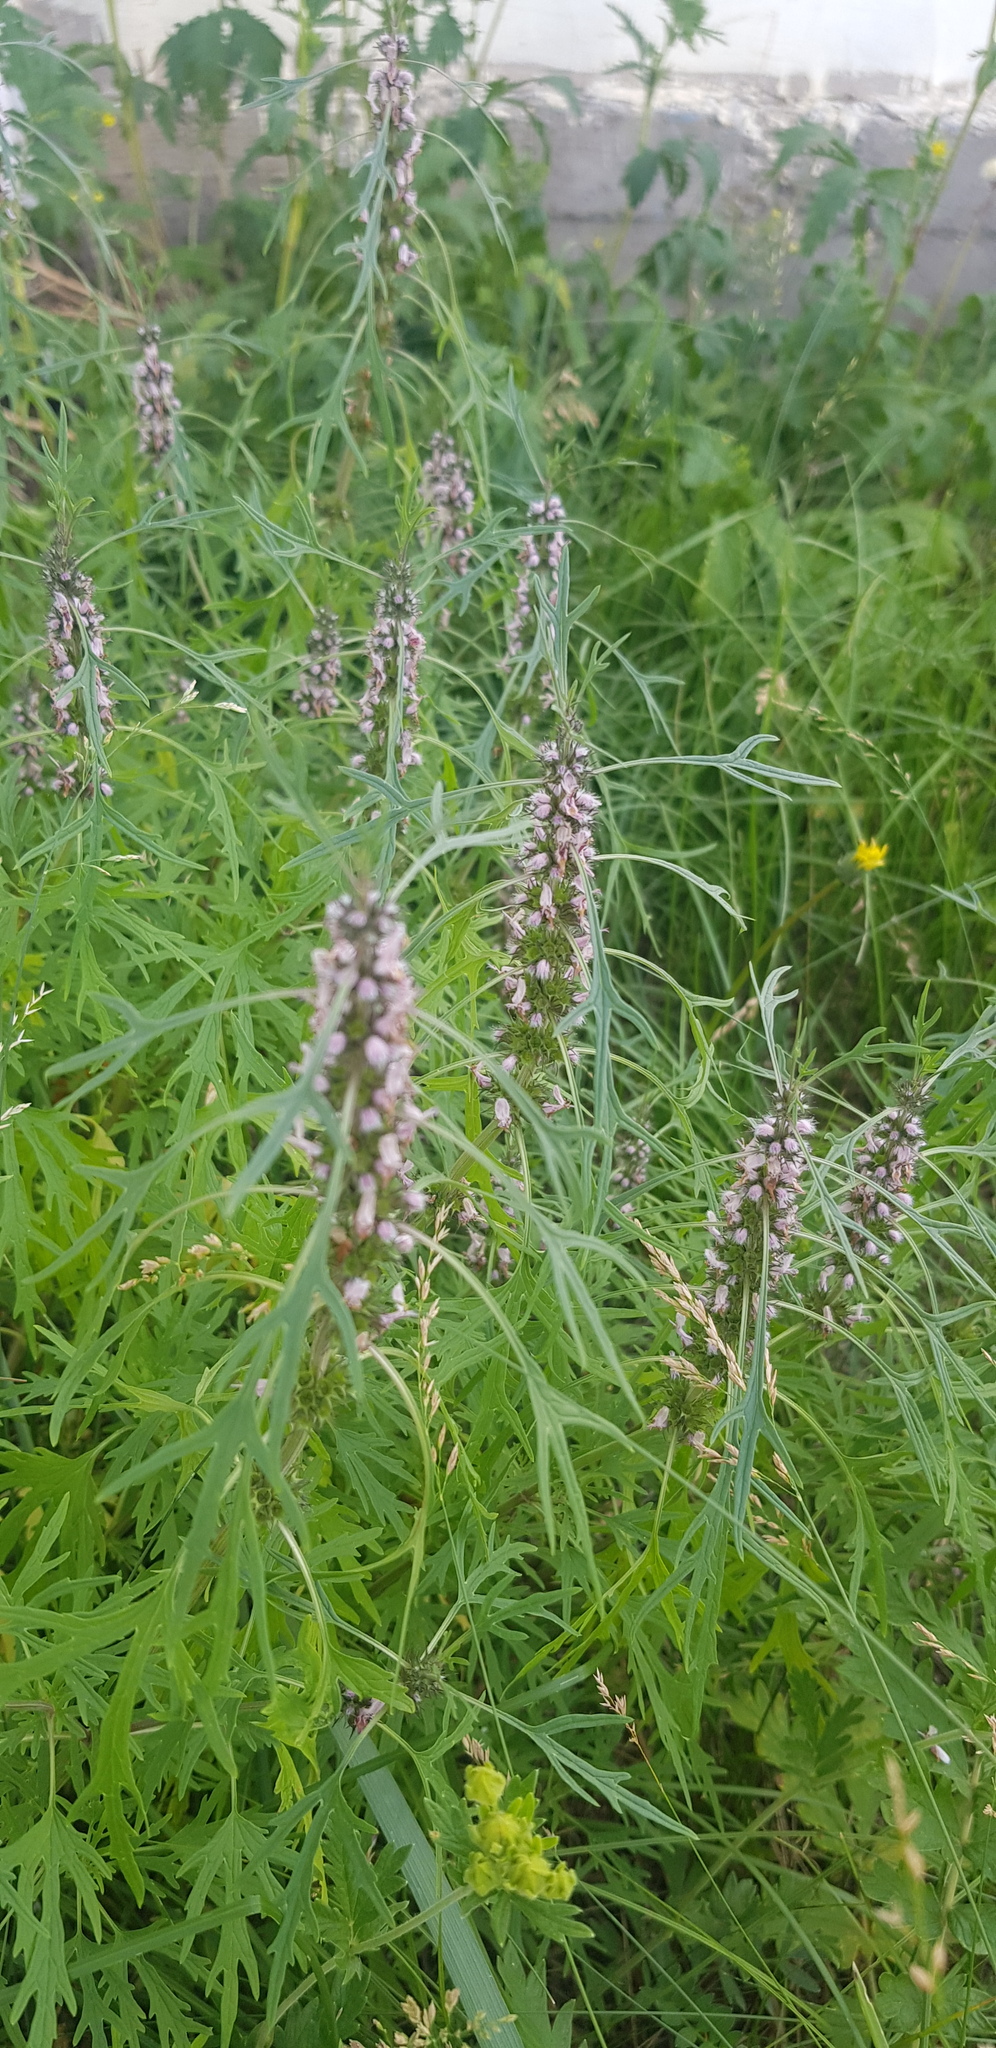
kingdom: Plantae
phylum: Tracheophyta
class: Magnoliopsida
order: Lamiales
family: Lamiaceae
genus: Leonurus
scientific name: Leonurus glaucescens
